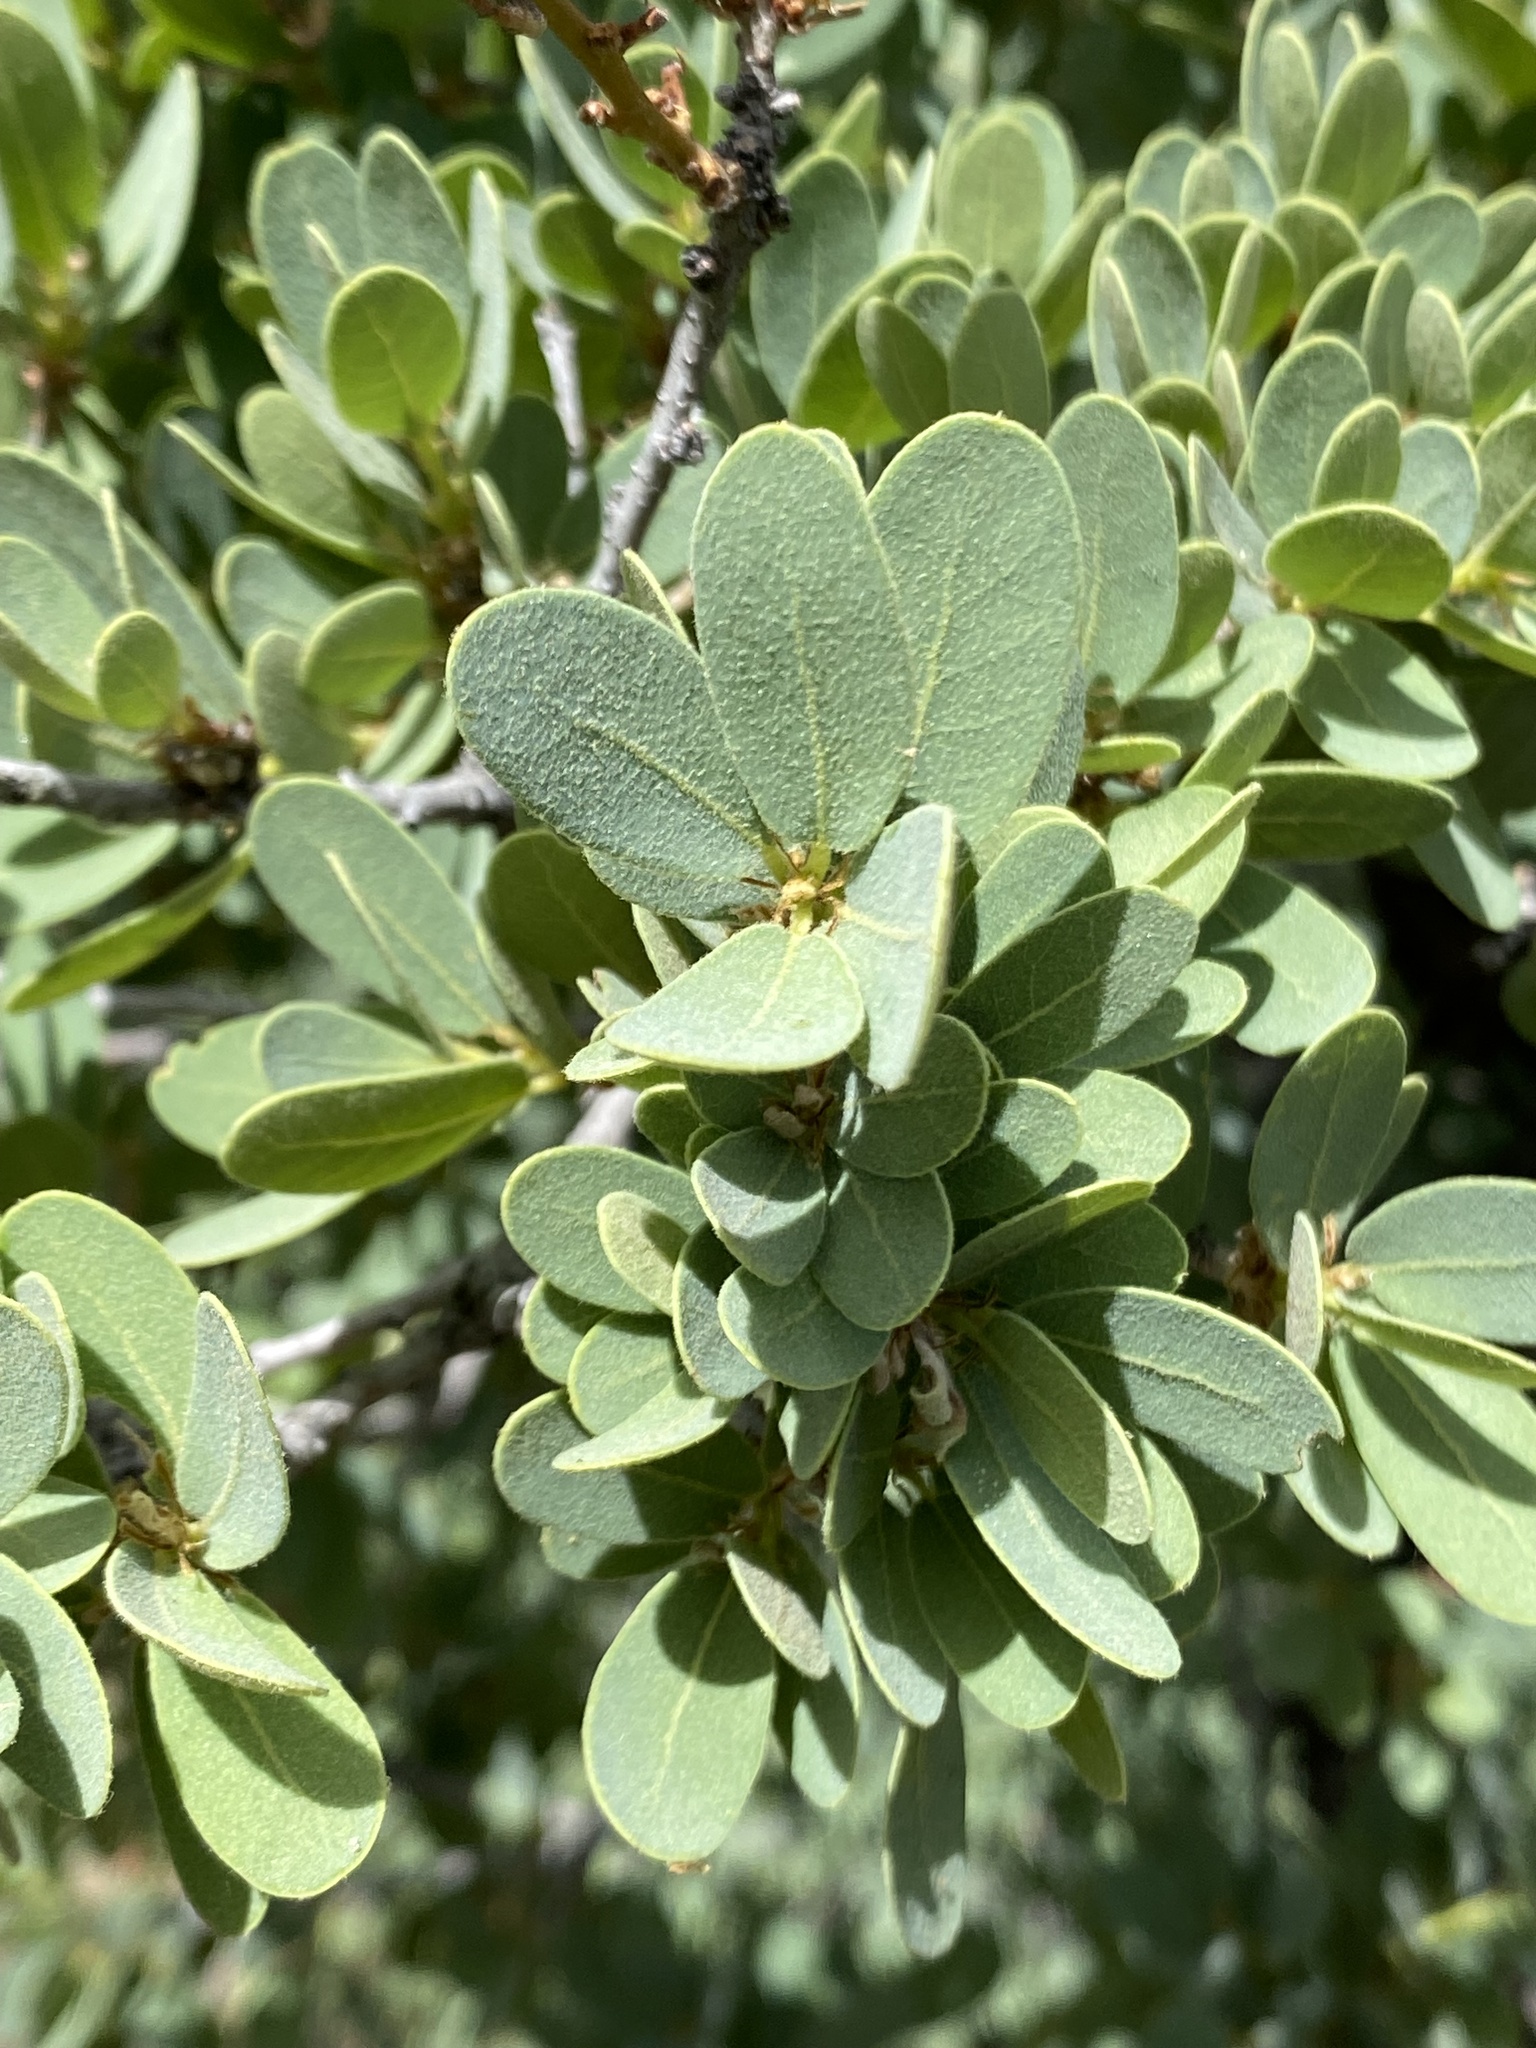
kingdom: Plantae
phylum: Tracheophyta
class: Magnoliopsida
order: Fagales
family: Fagaceae
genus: Quercus
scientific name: Quercus oblongifolia
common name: Mexican blue oak
